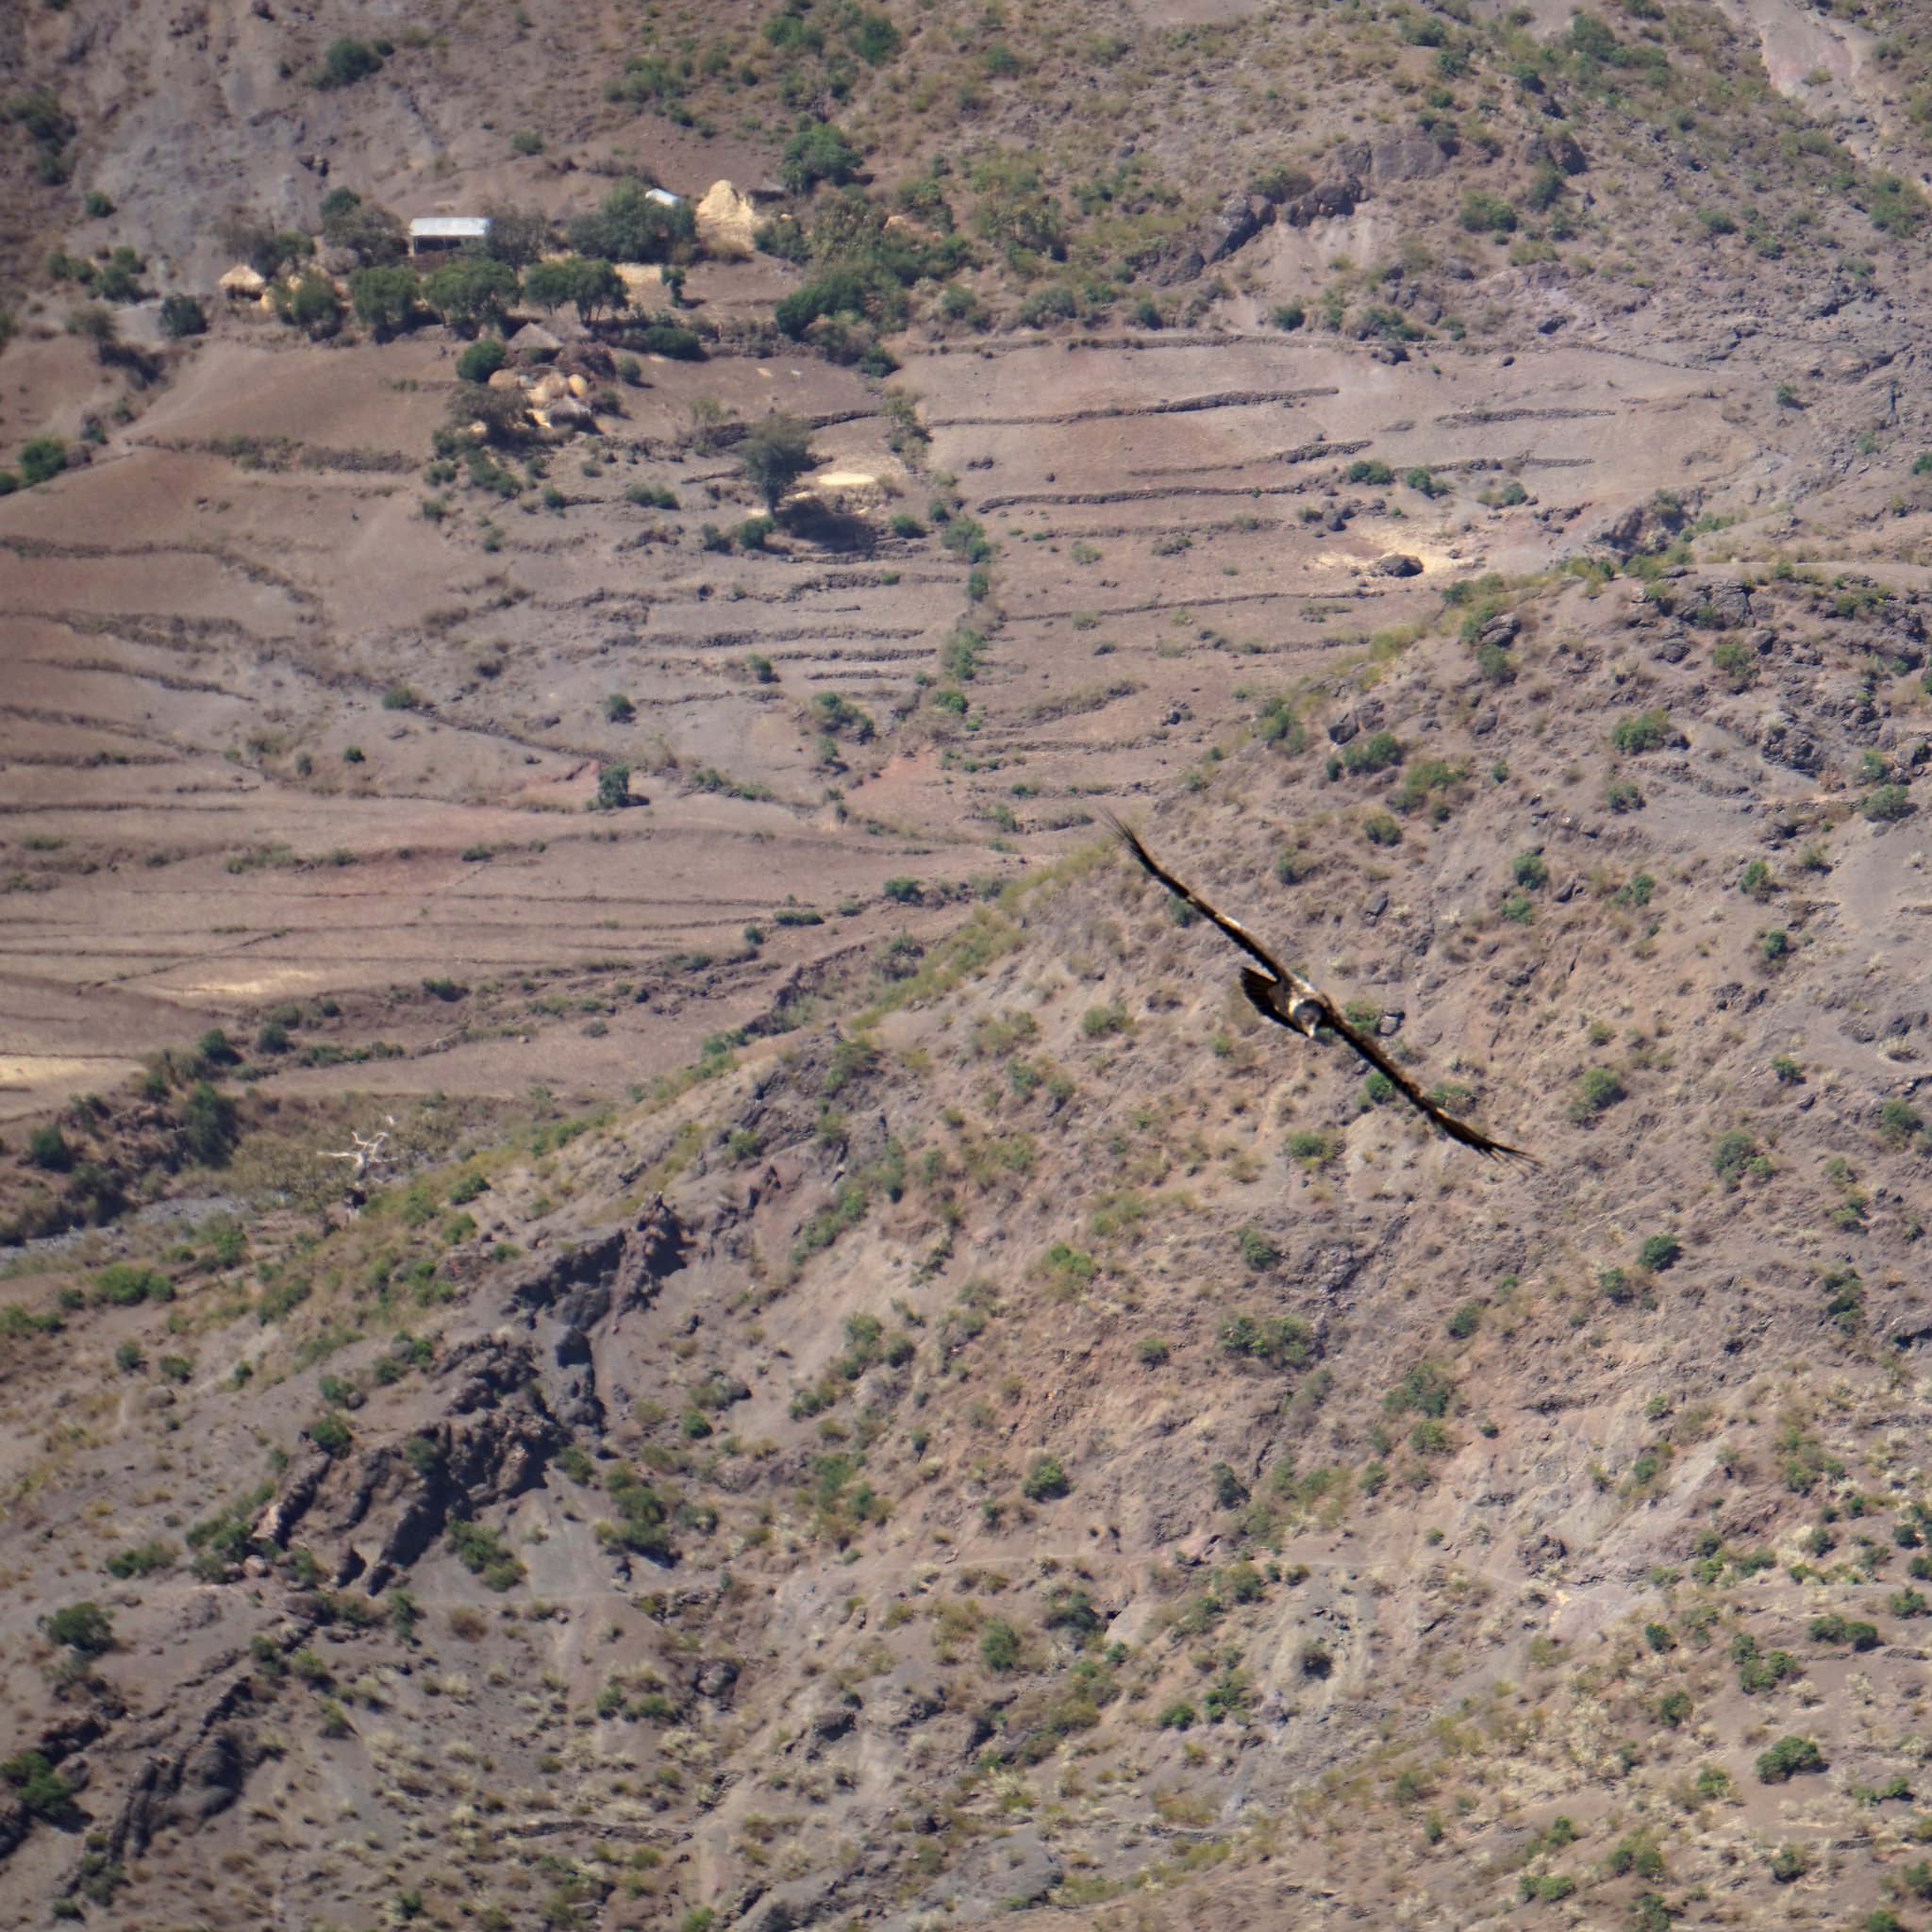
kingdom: Animalia
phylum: Chordata
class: Aves
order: Accipitriformes
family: Accipitridae
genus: Gypaetus
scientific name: Gypaetus barbatus
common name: Bearded vulture
